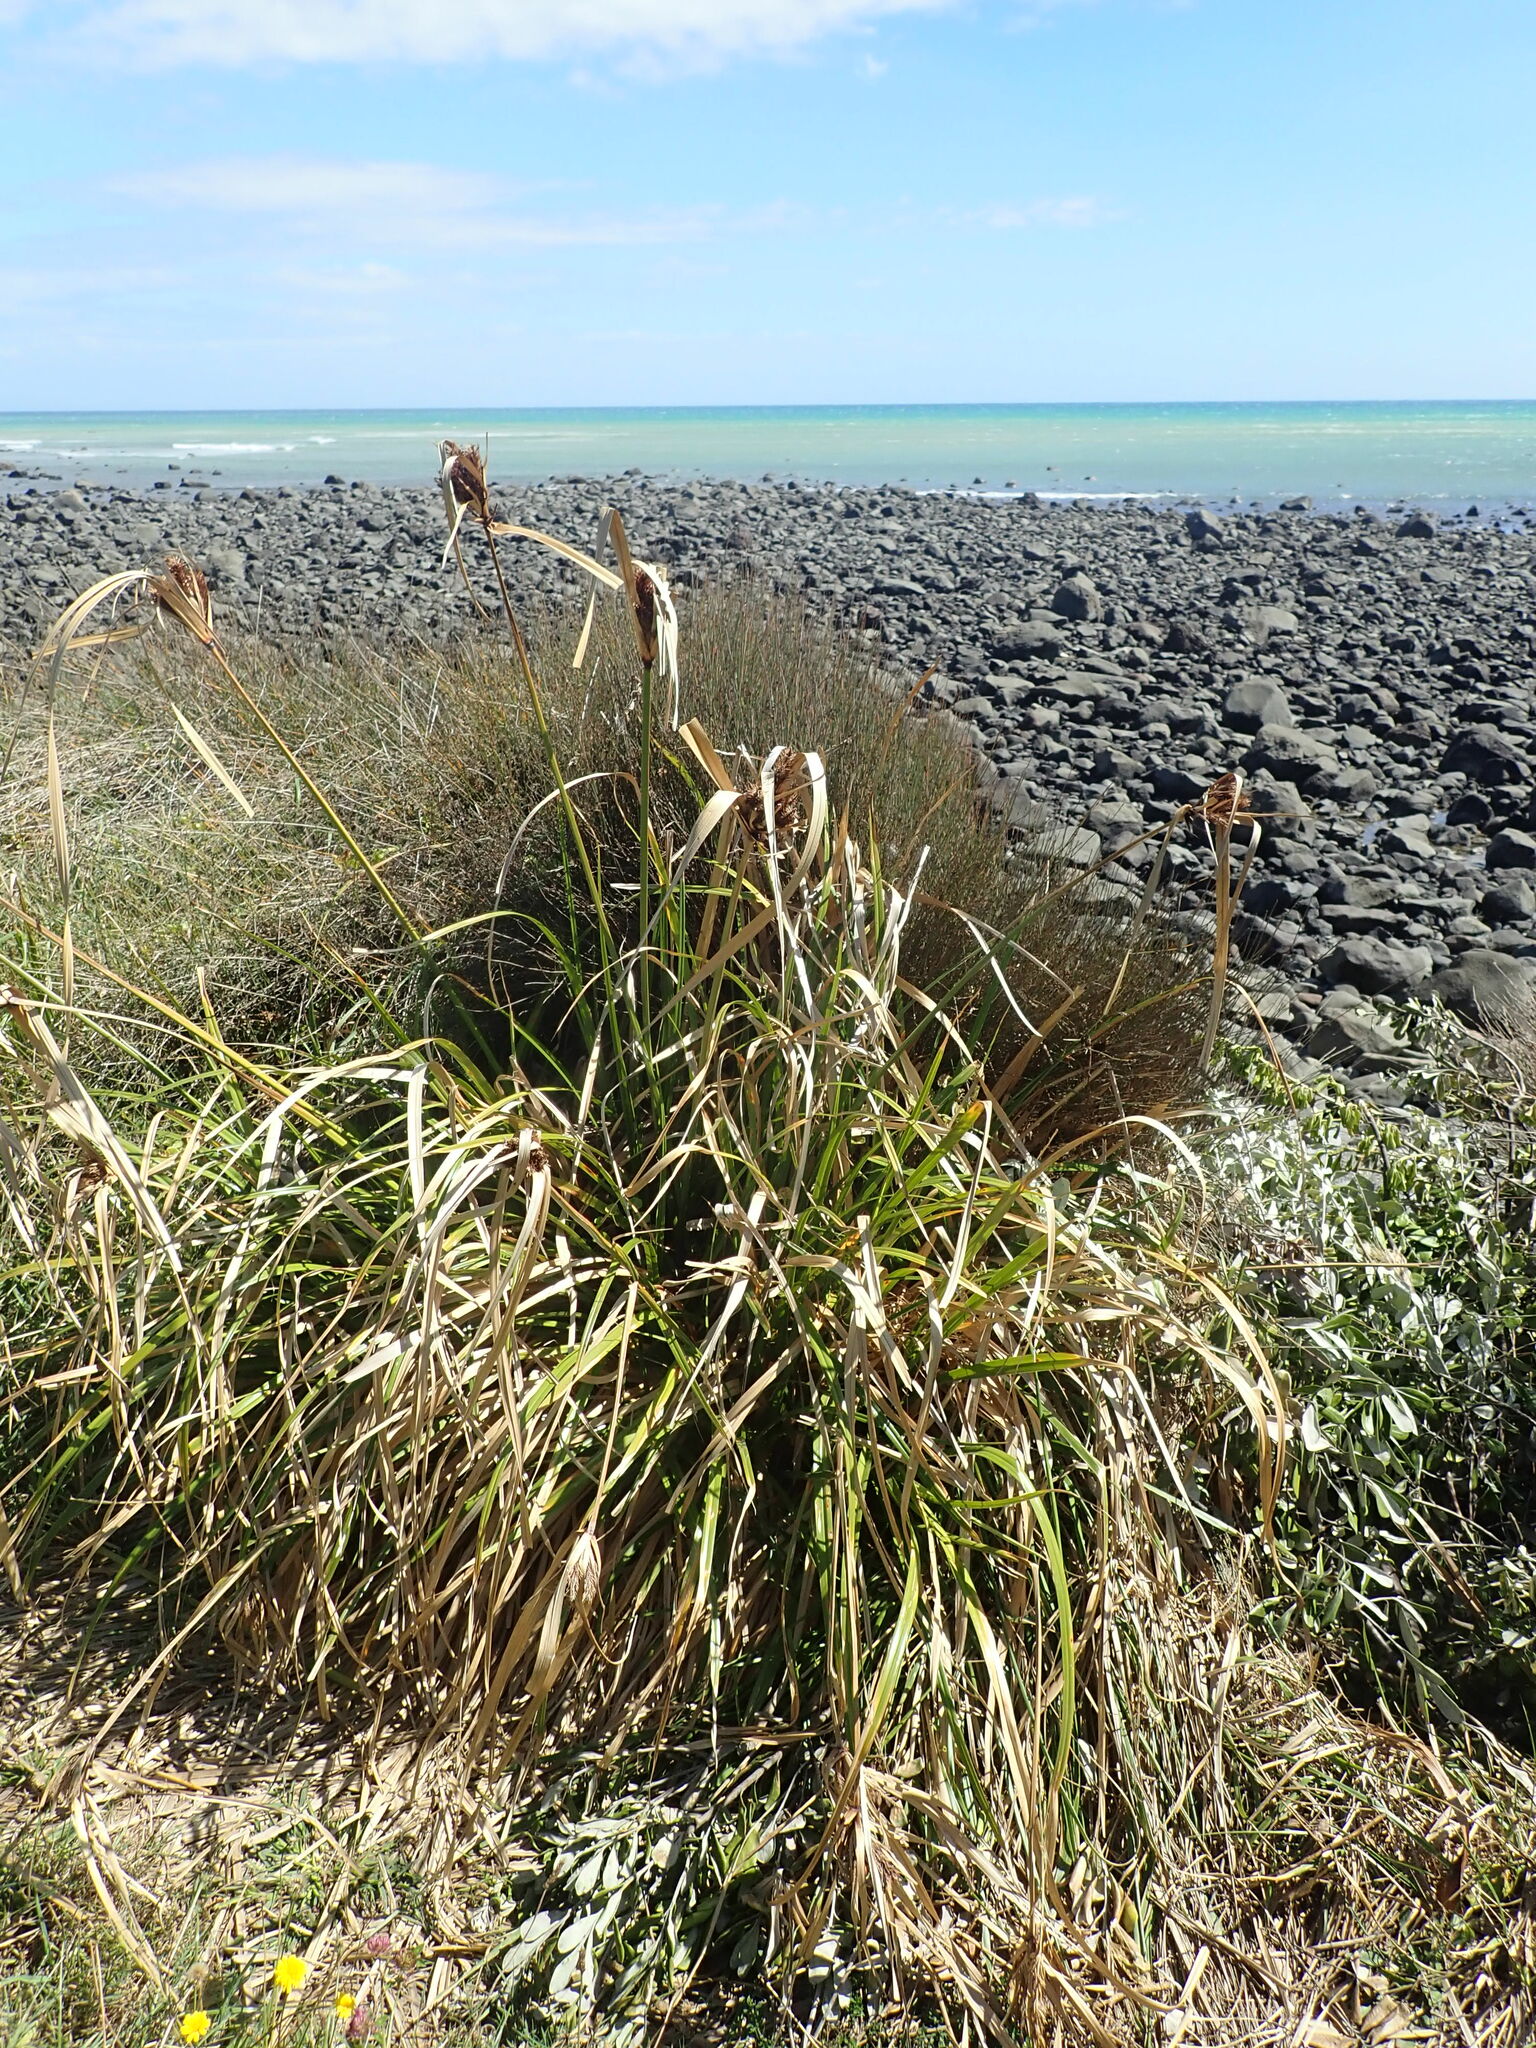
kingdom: Plantae
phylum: Tracheophyta
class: Liliopsida
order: Poales
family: Cyperaceae
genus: Cyperus
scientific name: Cyperus ustulatus
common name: Giant umbrella-sedge
